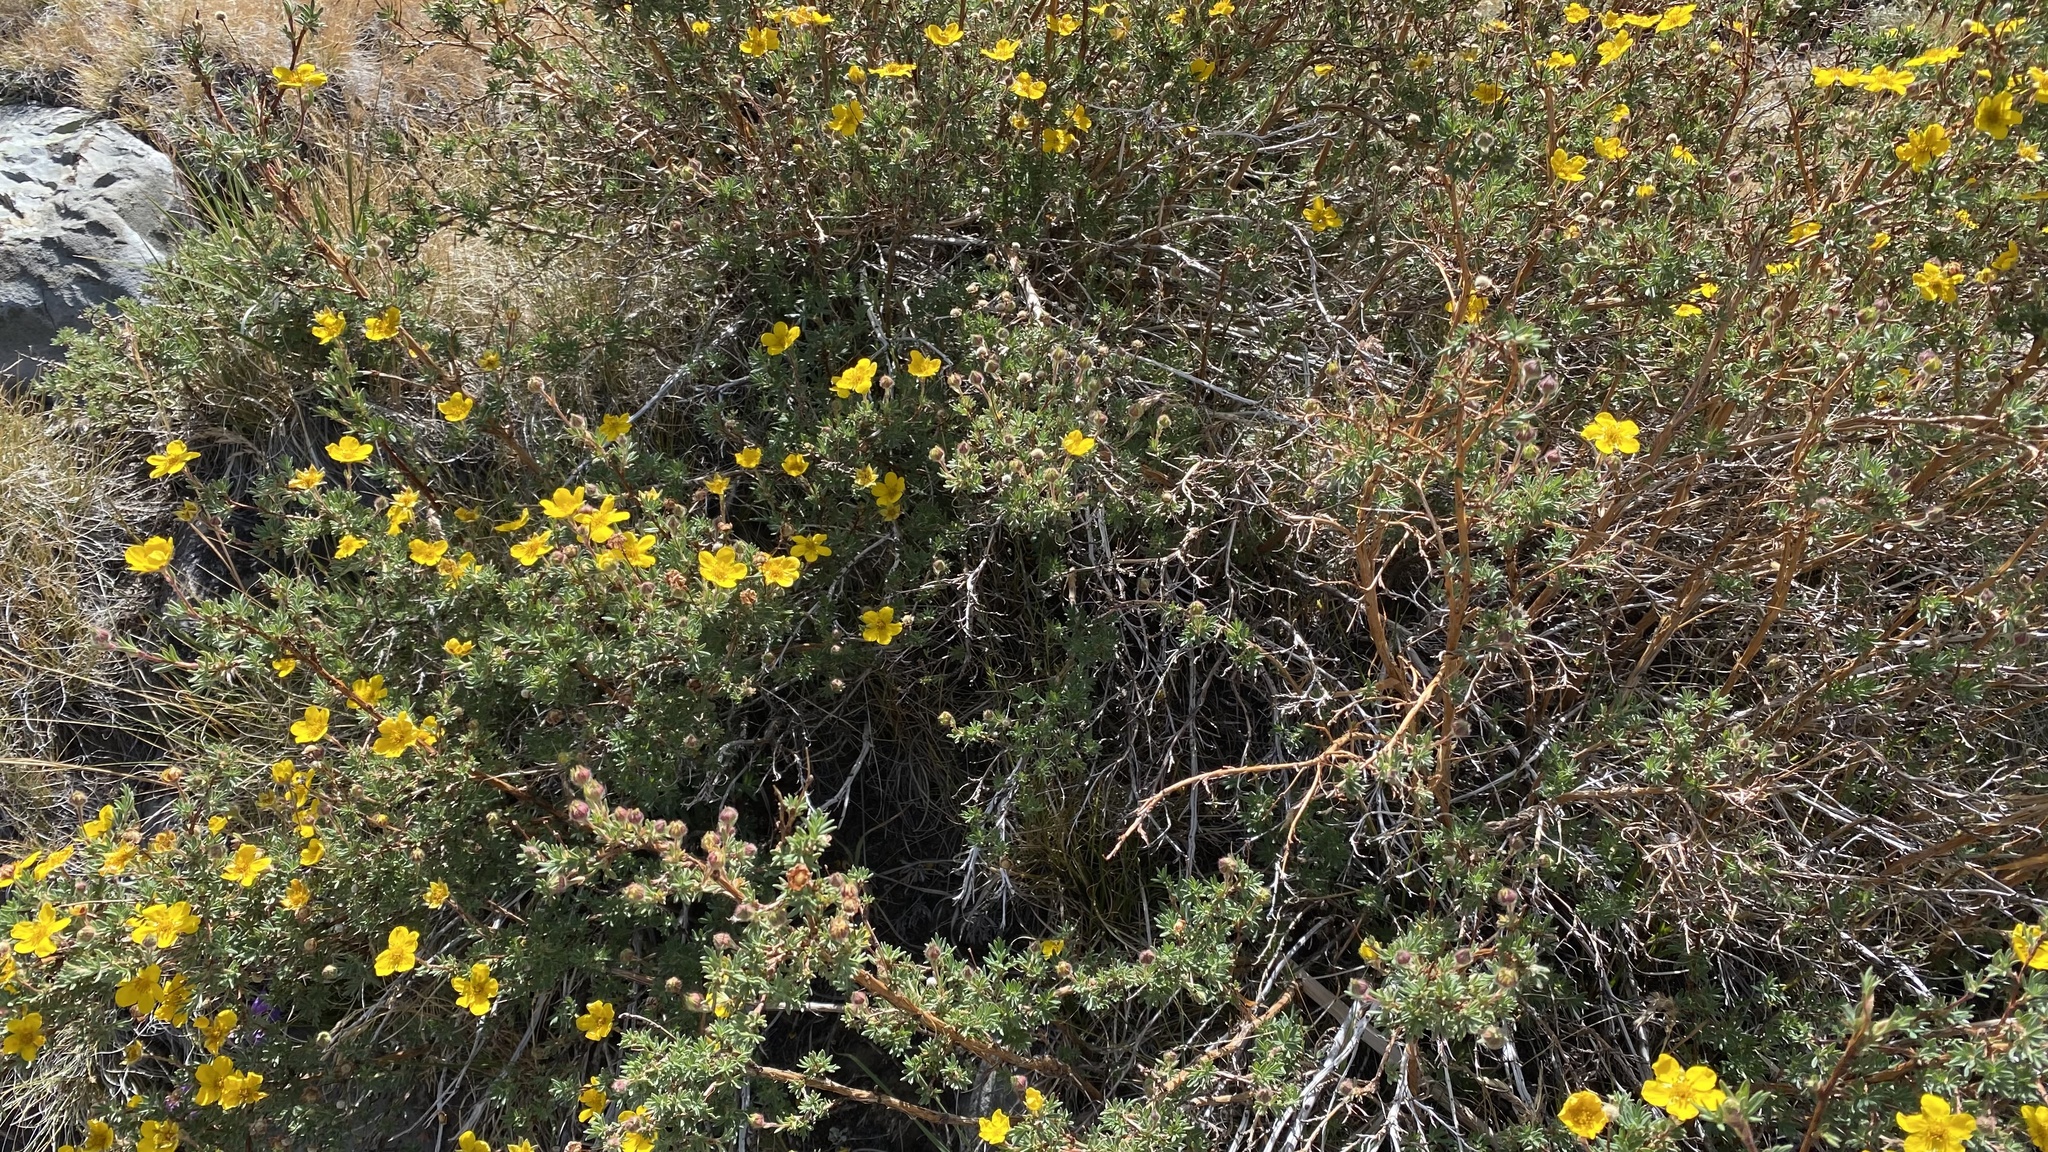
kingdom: Plantae
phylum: Tracheophyta
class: Magnoliopsida
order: Rosales
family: Rosaceae
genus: Dasiphora
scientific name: Dasiphora fruticosa
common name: Shrubby cinquefoil
